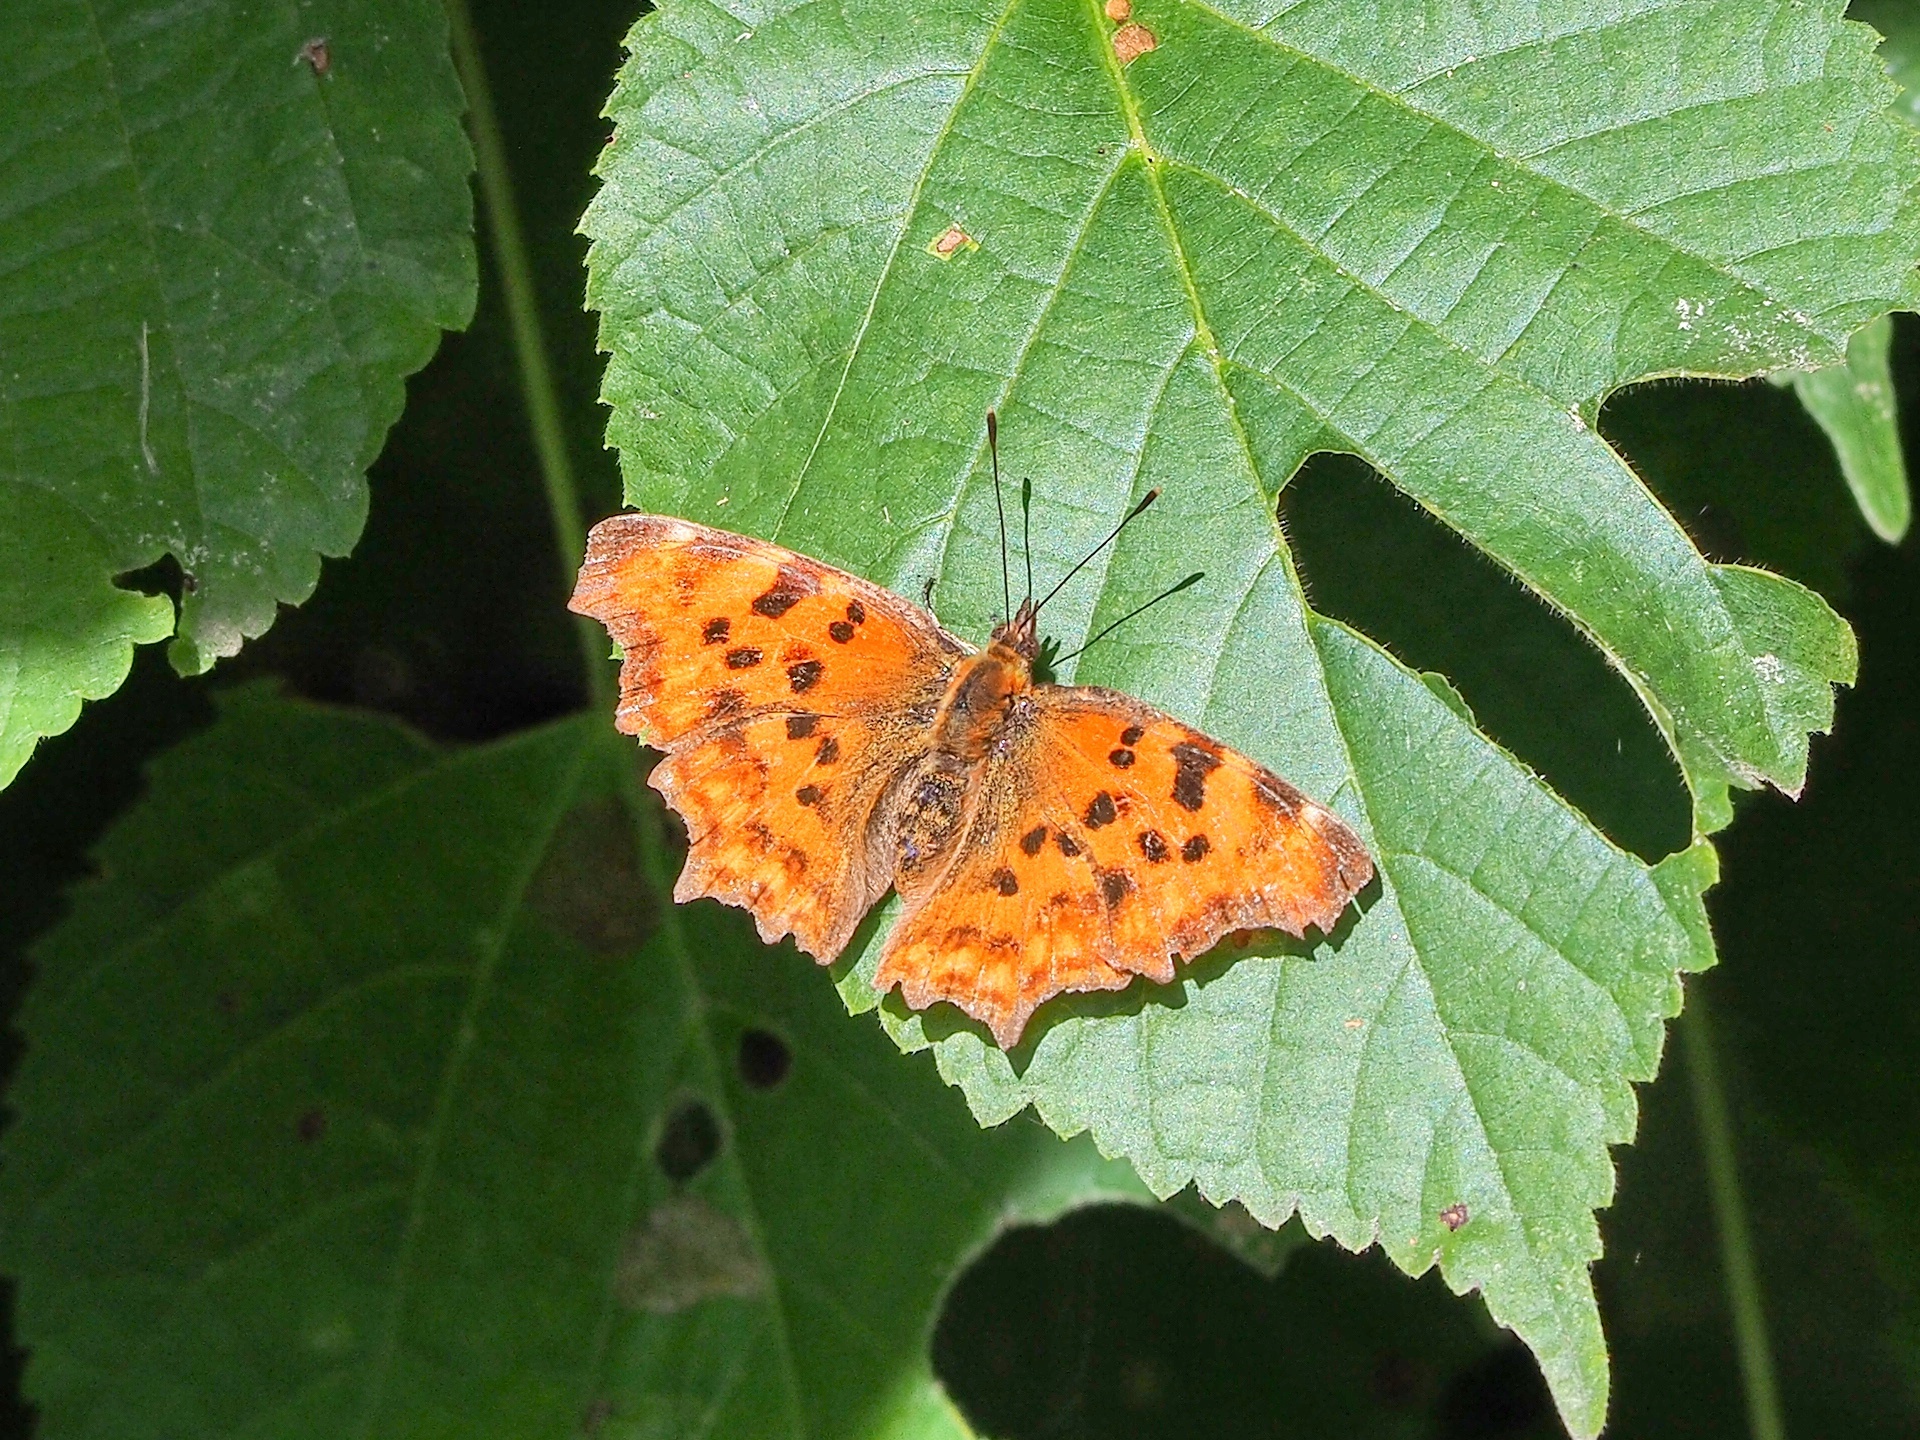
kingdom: Animalia
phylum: Arthropoda
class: Insecta
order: Lepidoptera
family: Nymphalidae
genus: Polygonia
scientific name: Polygonia c-album
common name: Comma
